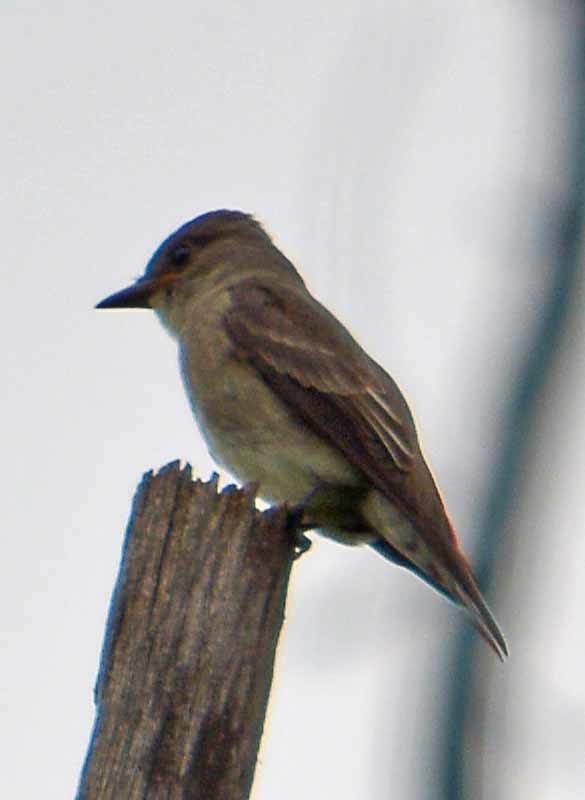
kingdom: Animalia
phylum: Chordata
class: Aves
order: Passeriformes
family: Tyrannidae
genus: Contopus
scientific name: Contopus sordidulus
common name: Western wood-pewee
